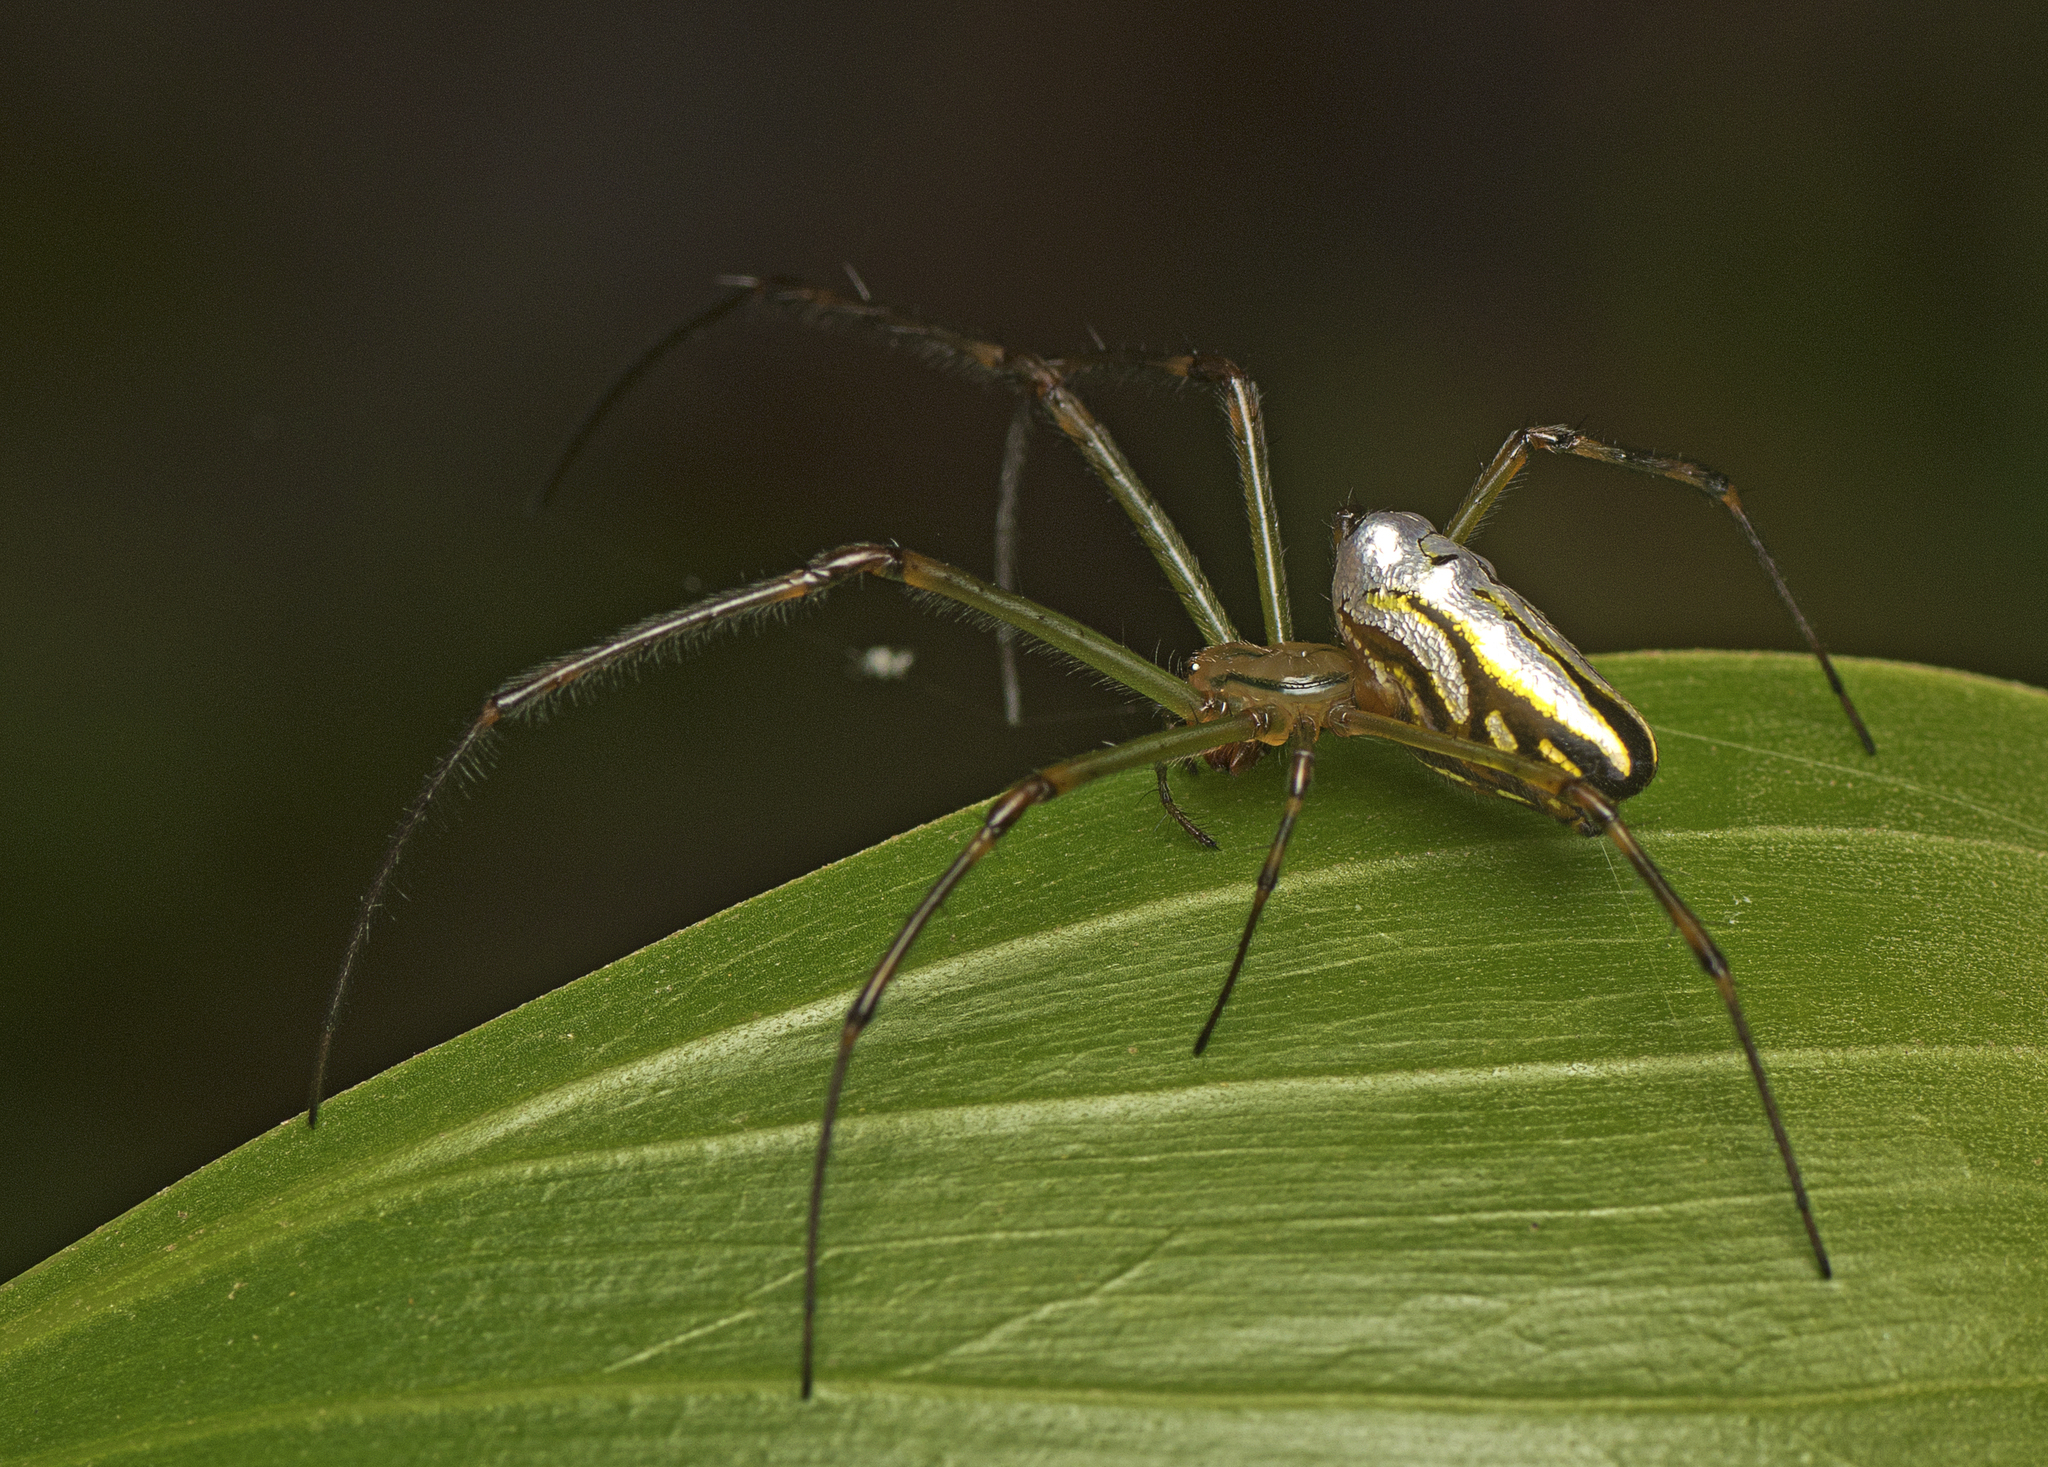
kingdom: Animalia
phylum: Arthropoda
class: Arachnida
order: Araneae
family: Tetragnathidae
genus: Leucauge
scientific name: Leucauge dromedaria
